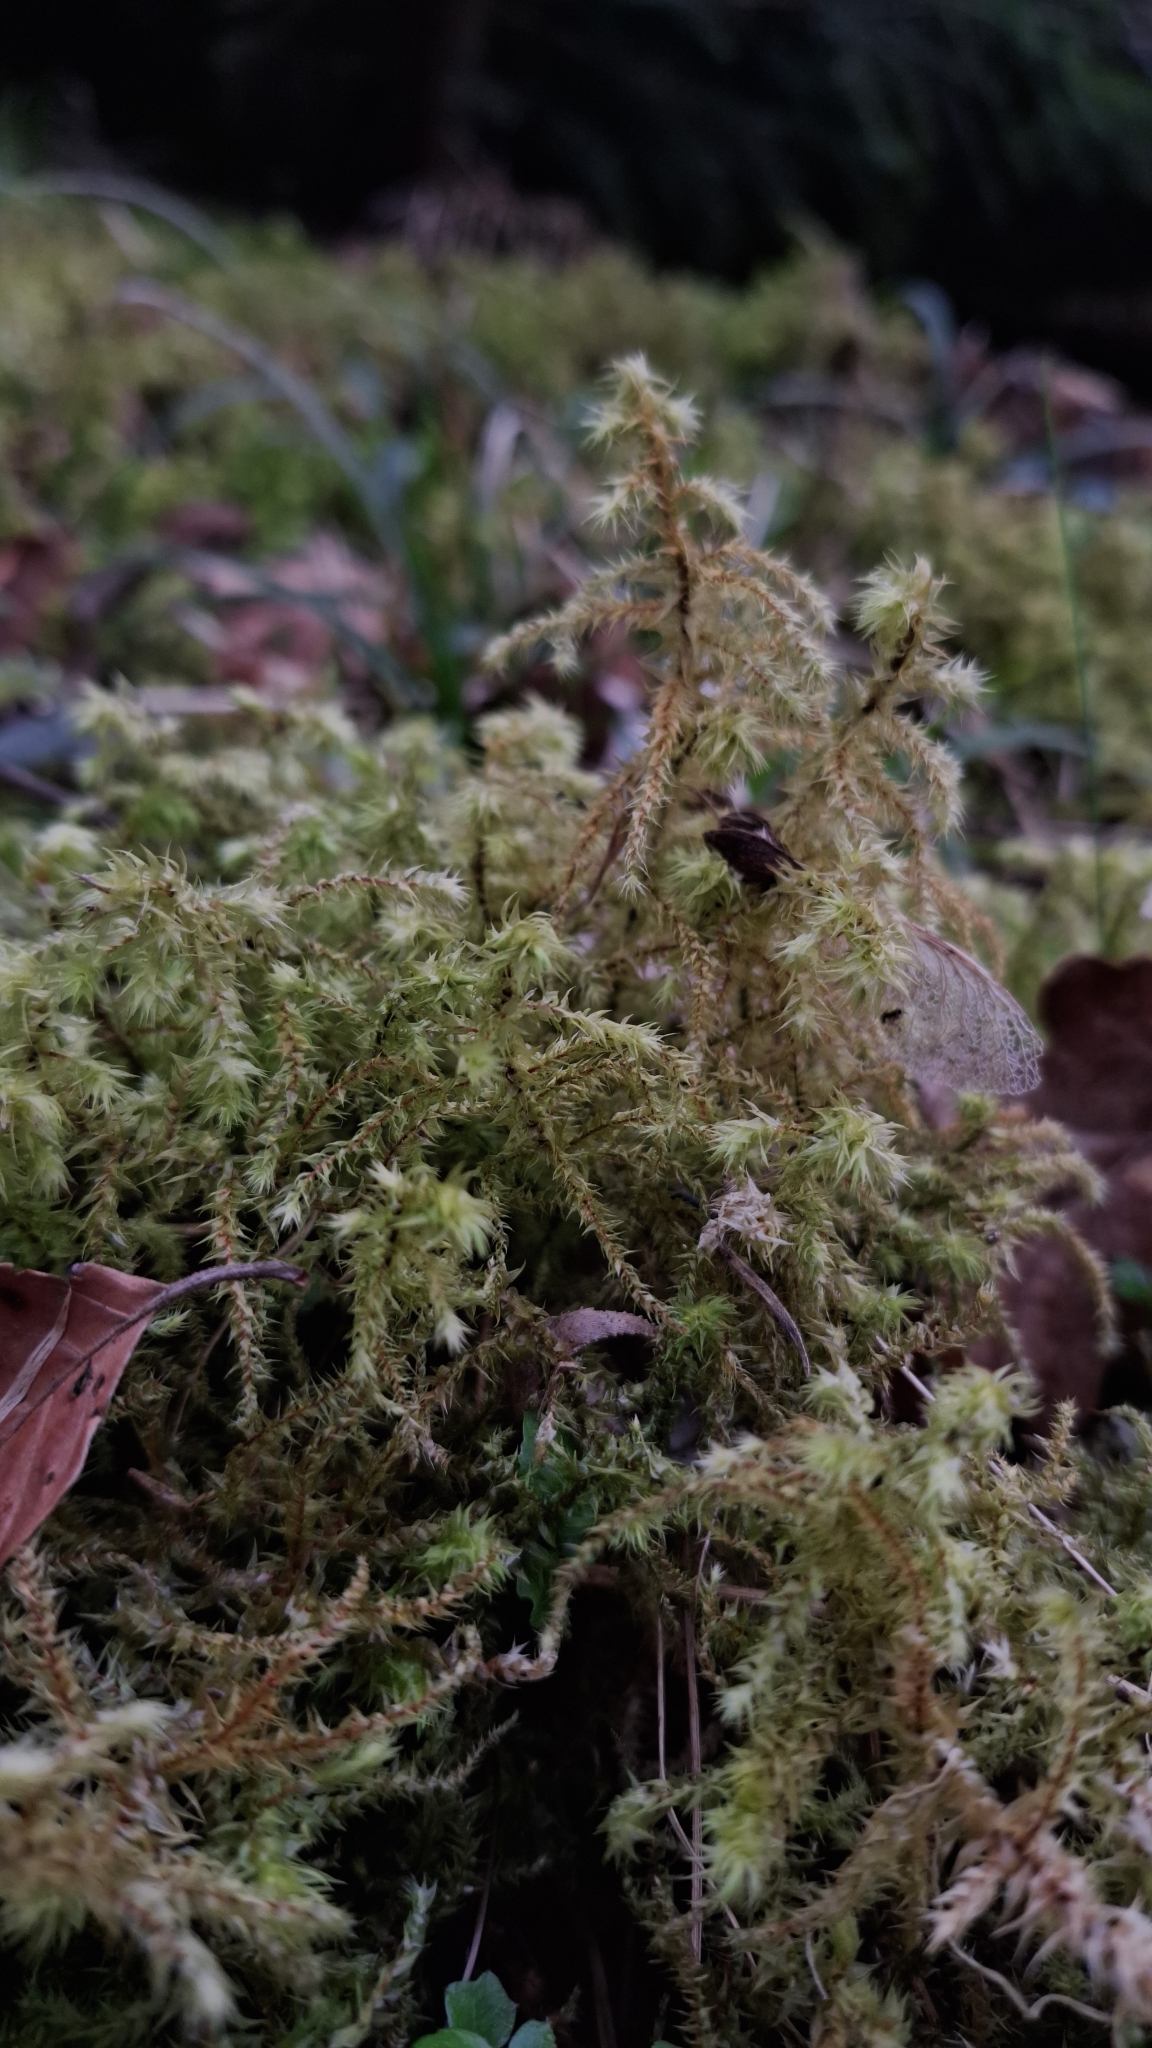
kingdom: Plantae
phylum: Bryophyta
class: Bryopsida
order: Hypnales
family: Hylocomiaceae
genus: Hylocomiadelphus
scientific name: Hylocomiadelphus triquetrus
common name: Rough goose neck moss
